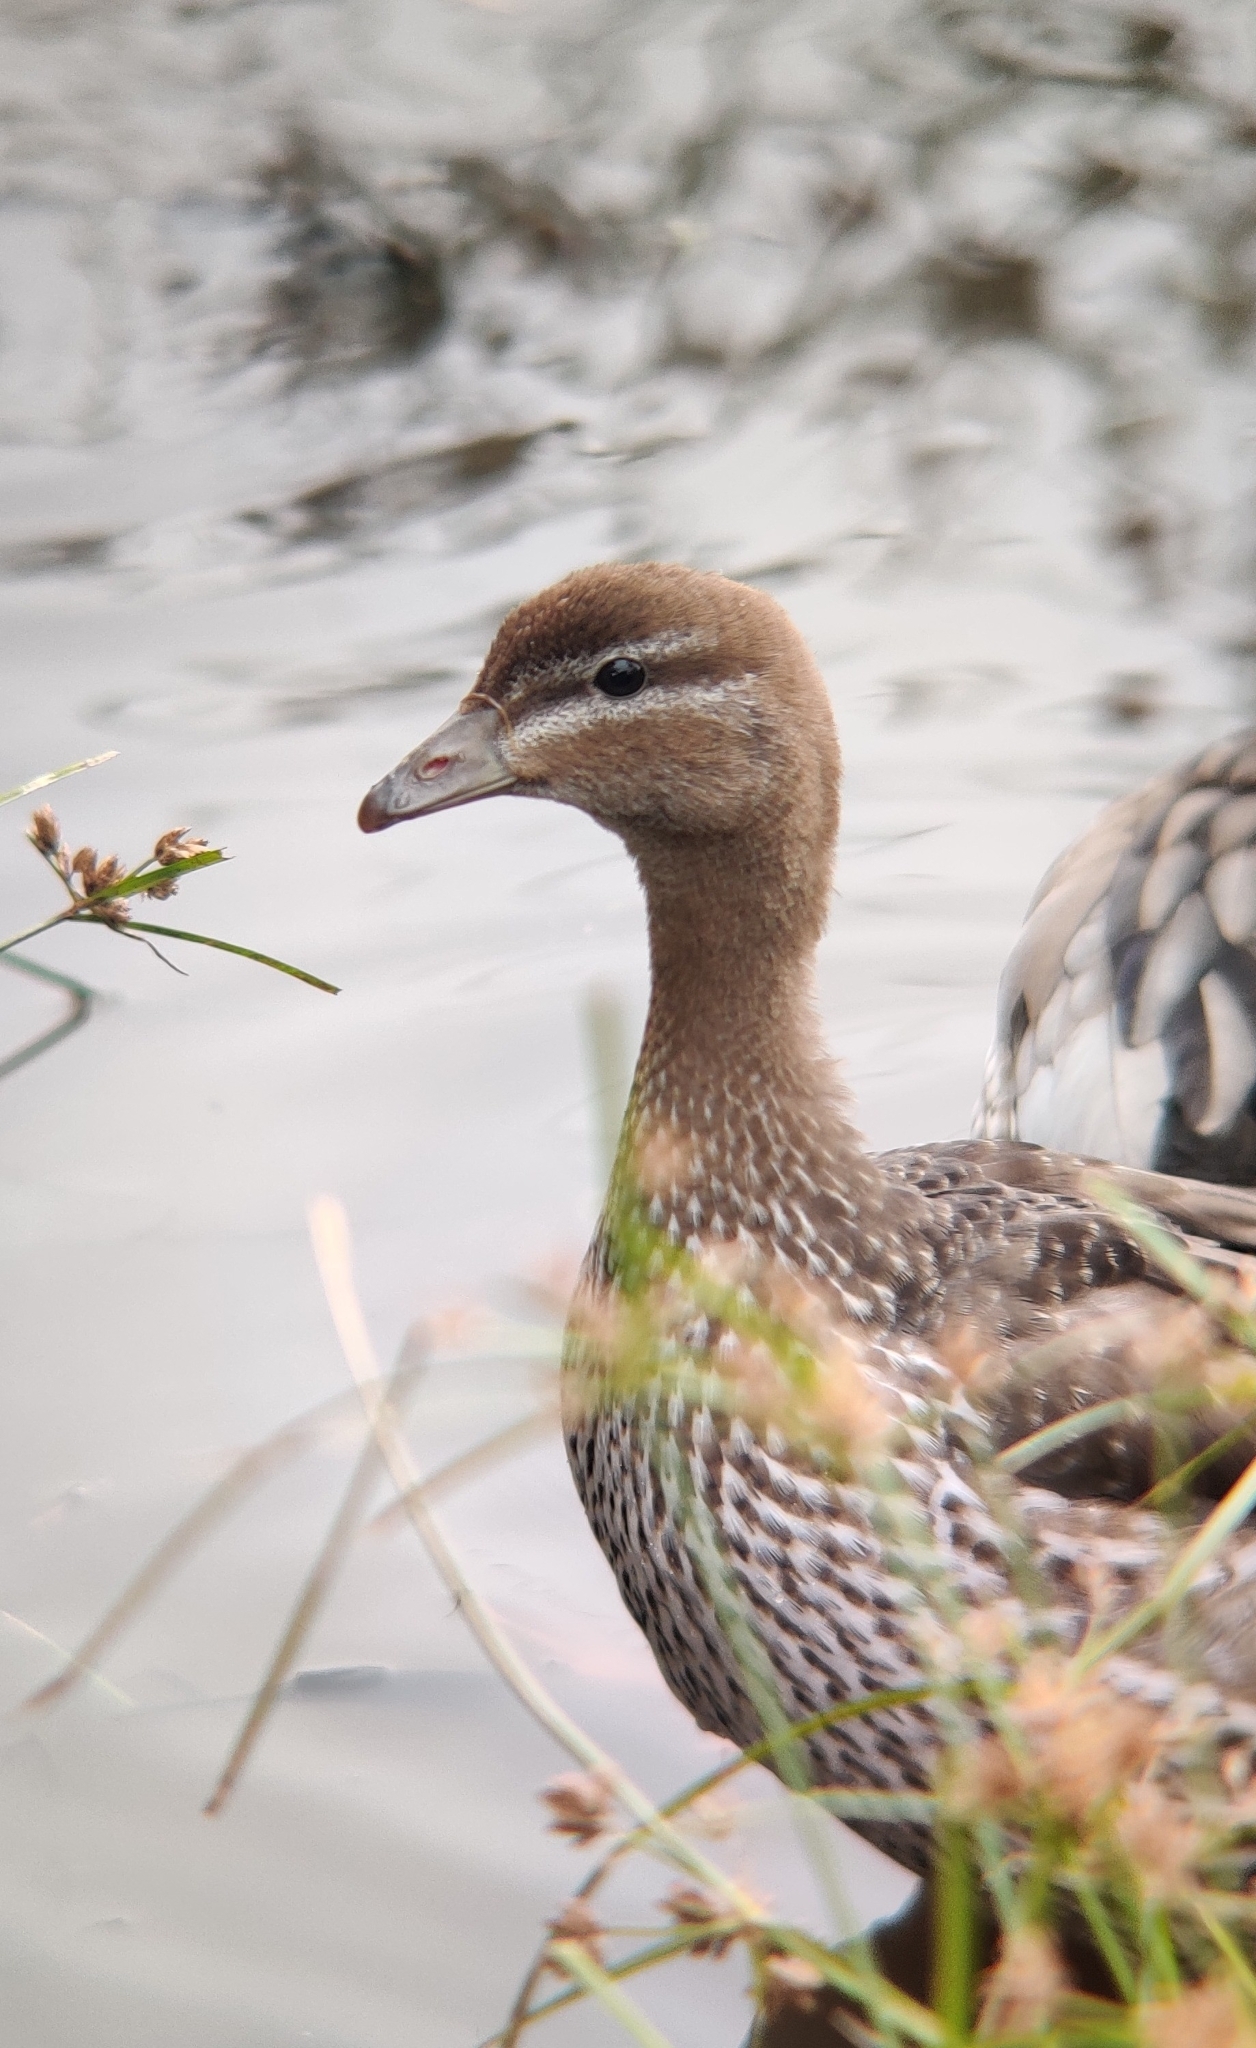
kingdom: Animalia
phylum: Chordata
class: Aves
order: Anseriformes
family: Anatidae
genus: Chenonetta
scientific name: Chenonetta jubata
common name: Maned duck
